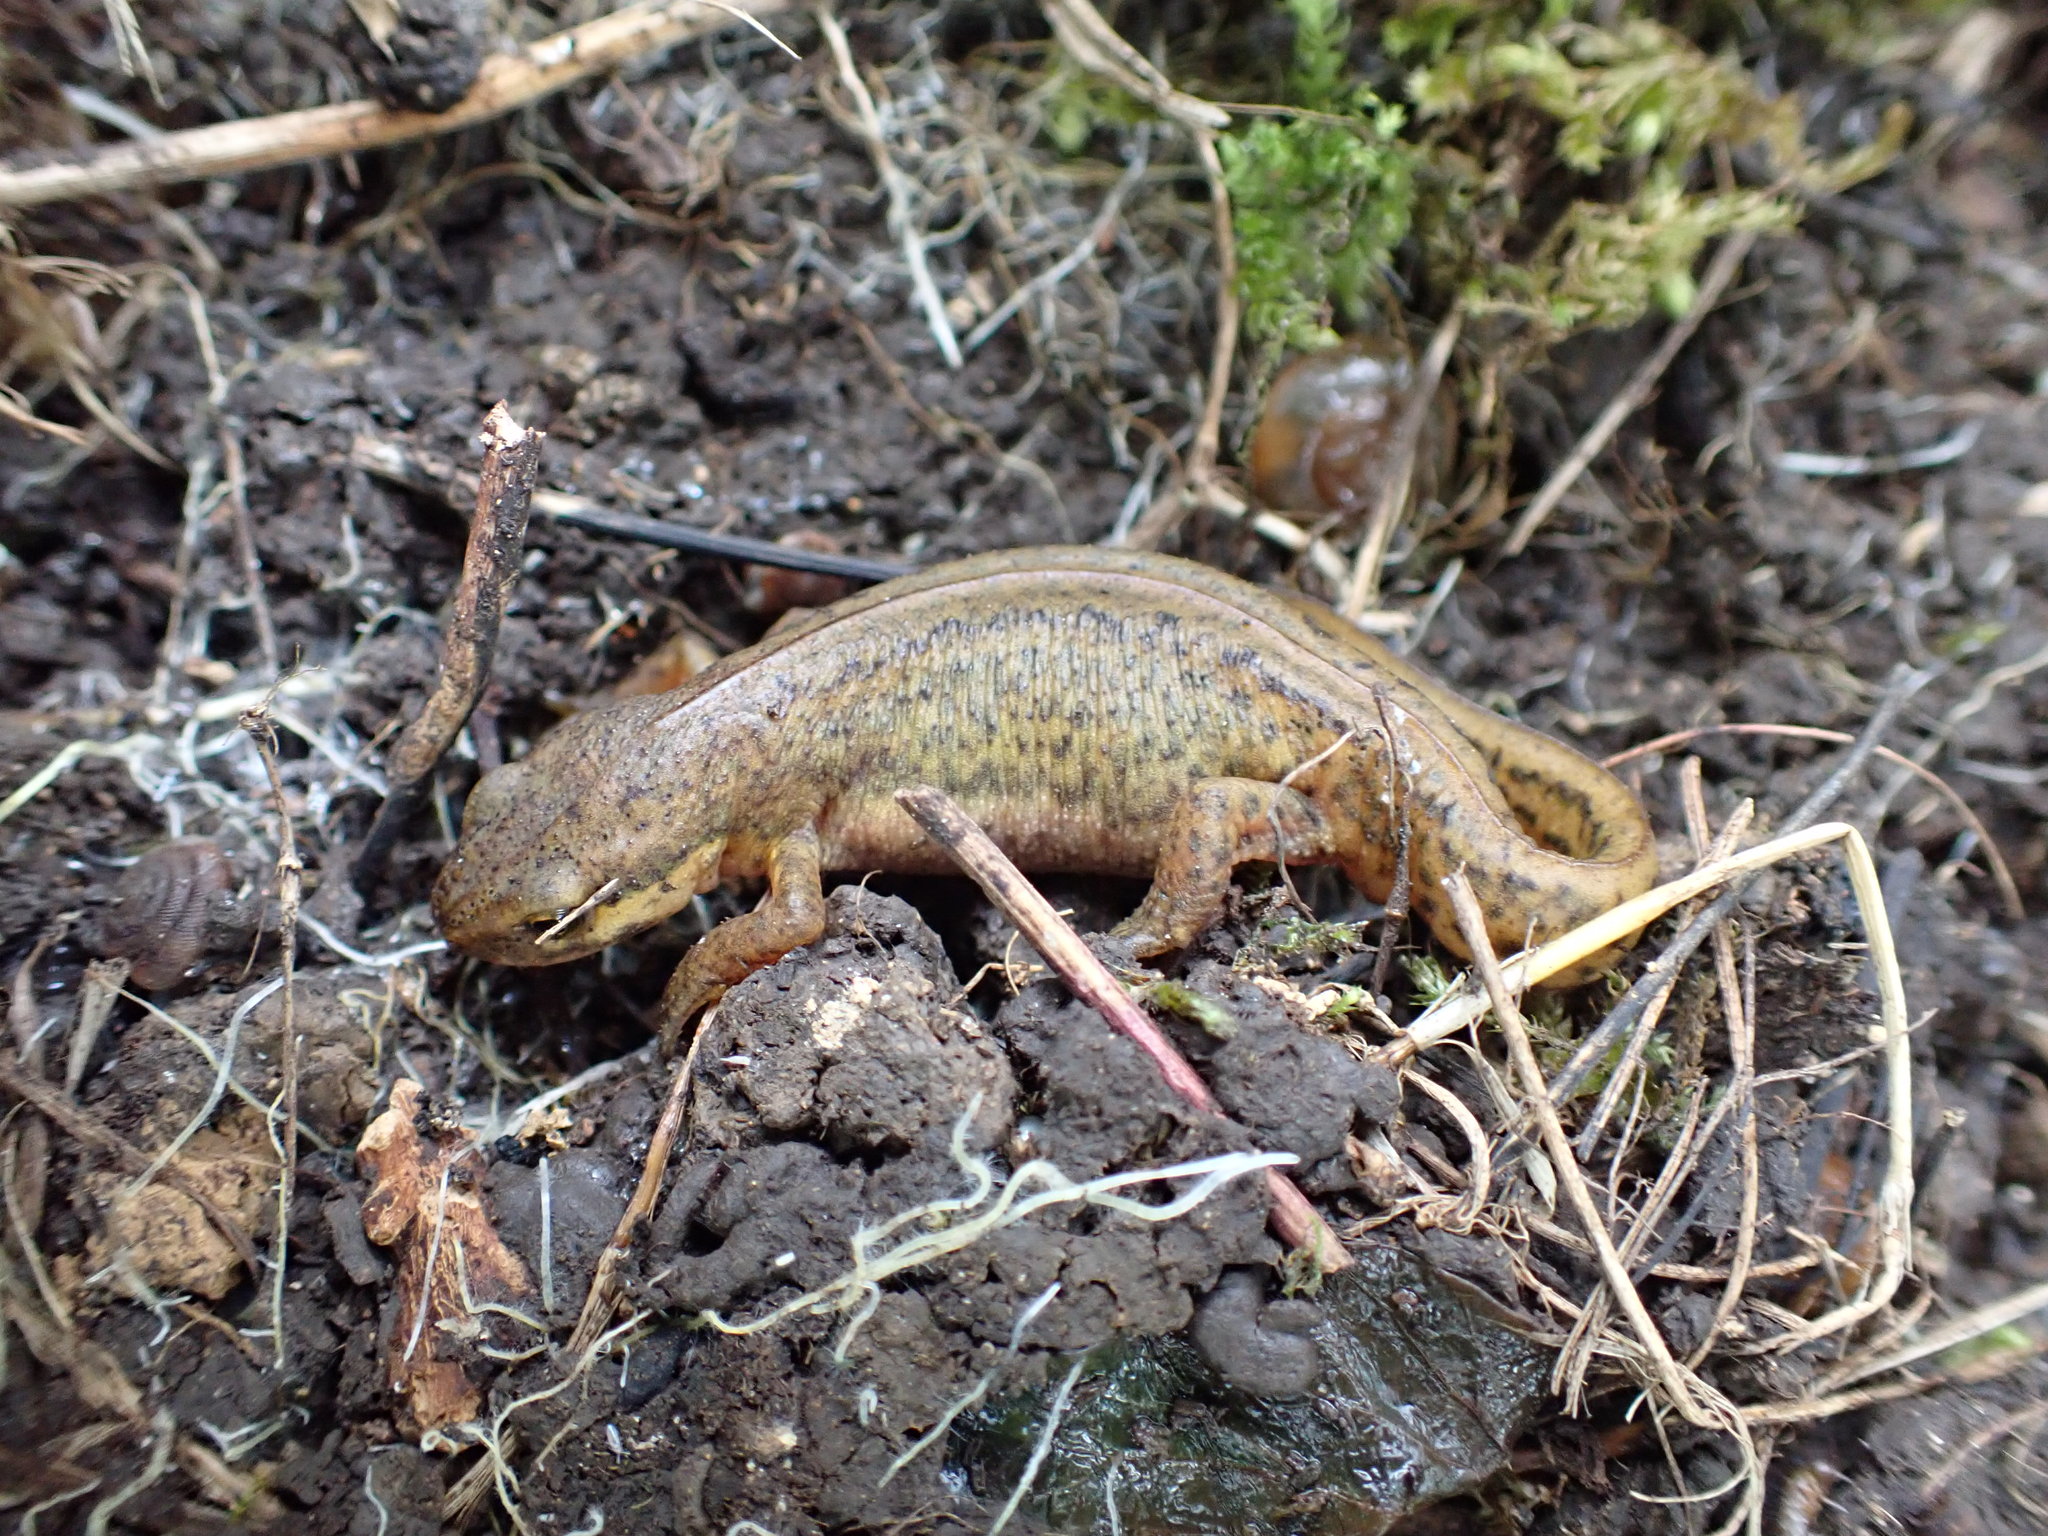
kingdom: Animalia
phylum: Chordata
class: Amphibia
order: Caudata
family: Salamandridae
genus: Lissotriton
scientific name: Lissotriton helveticus
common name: Palmate newt
